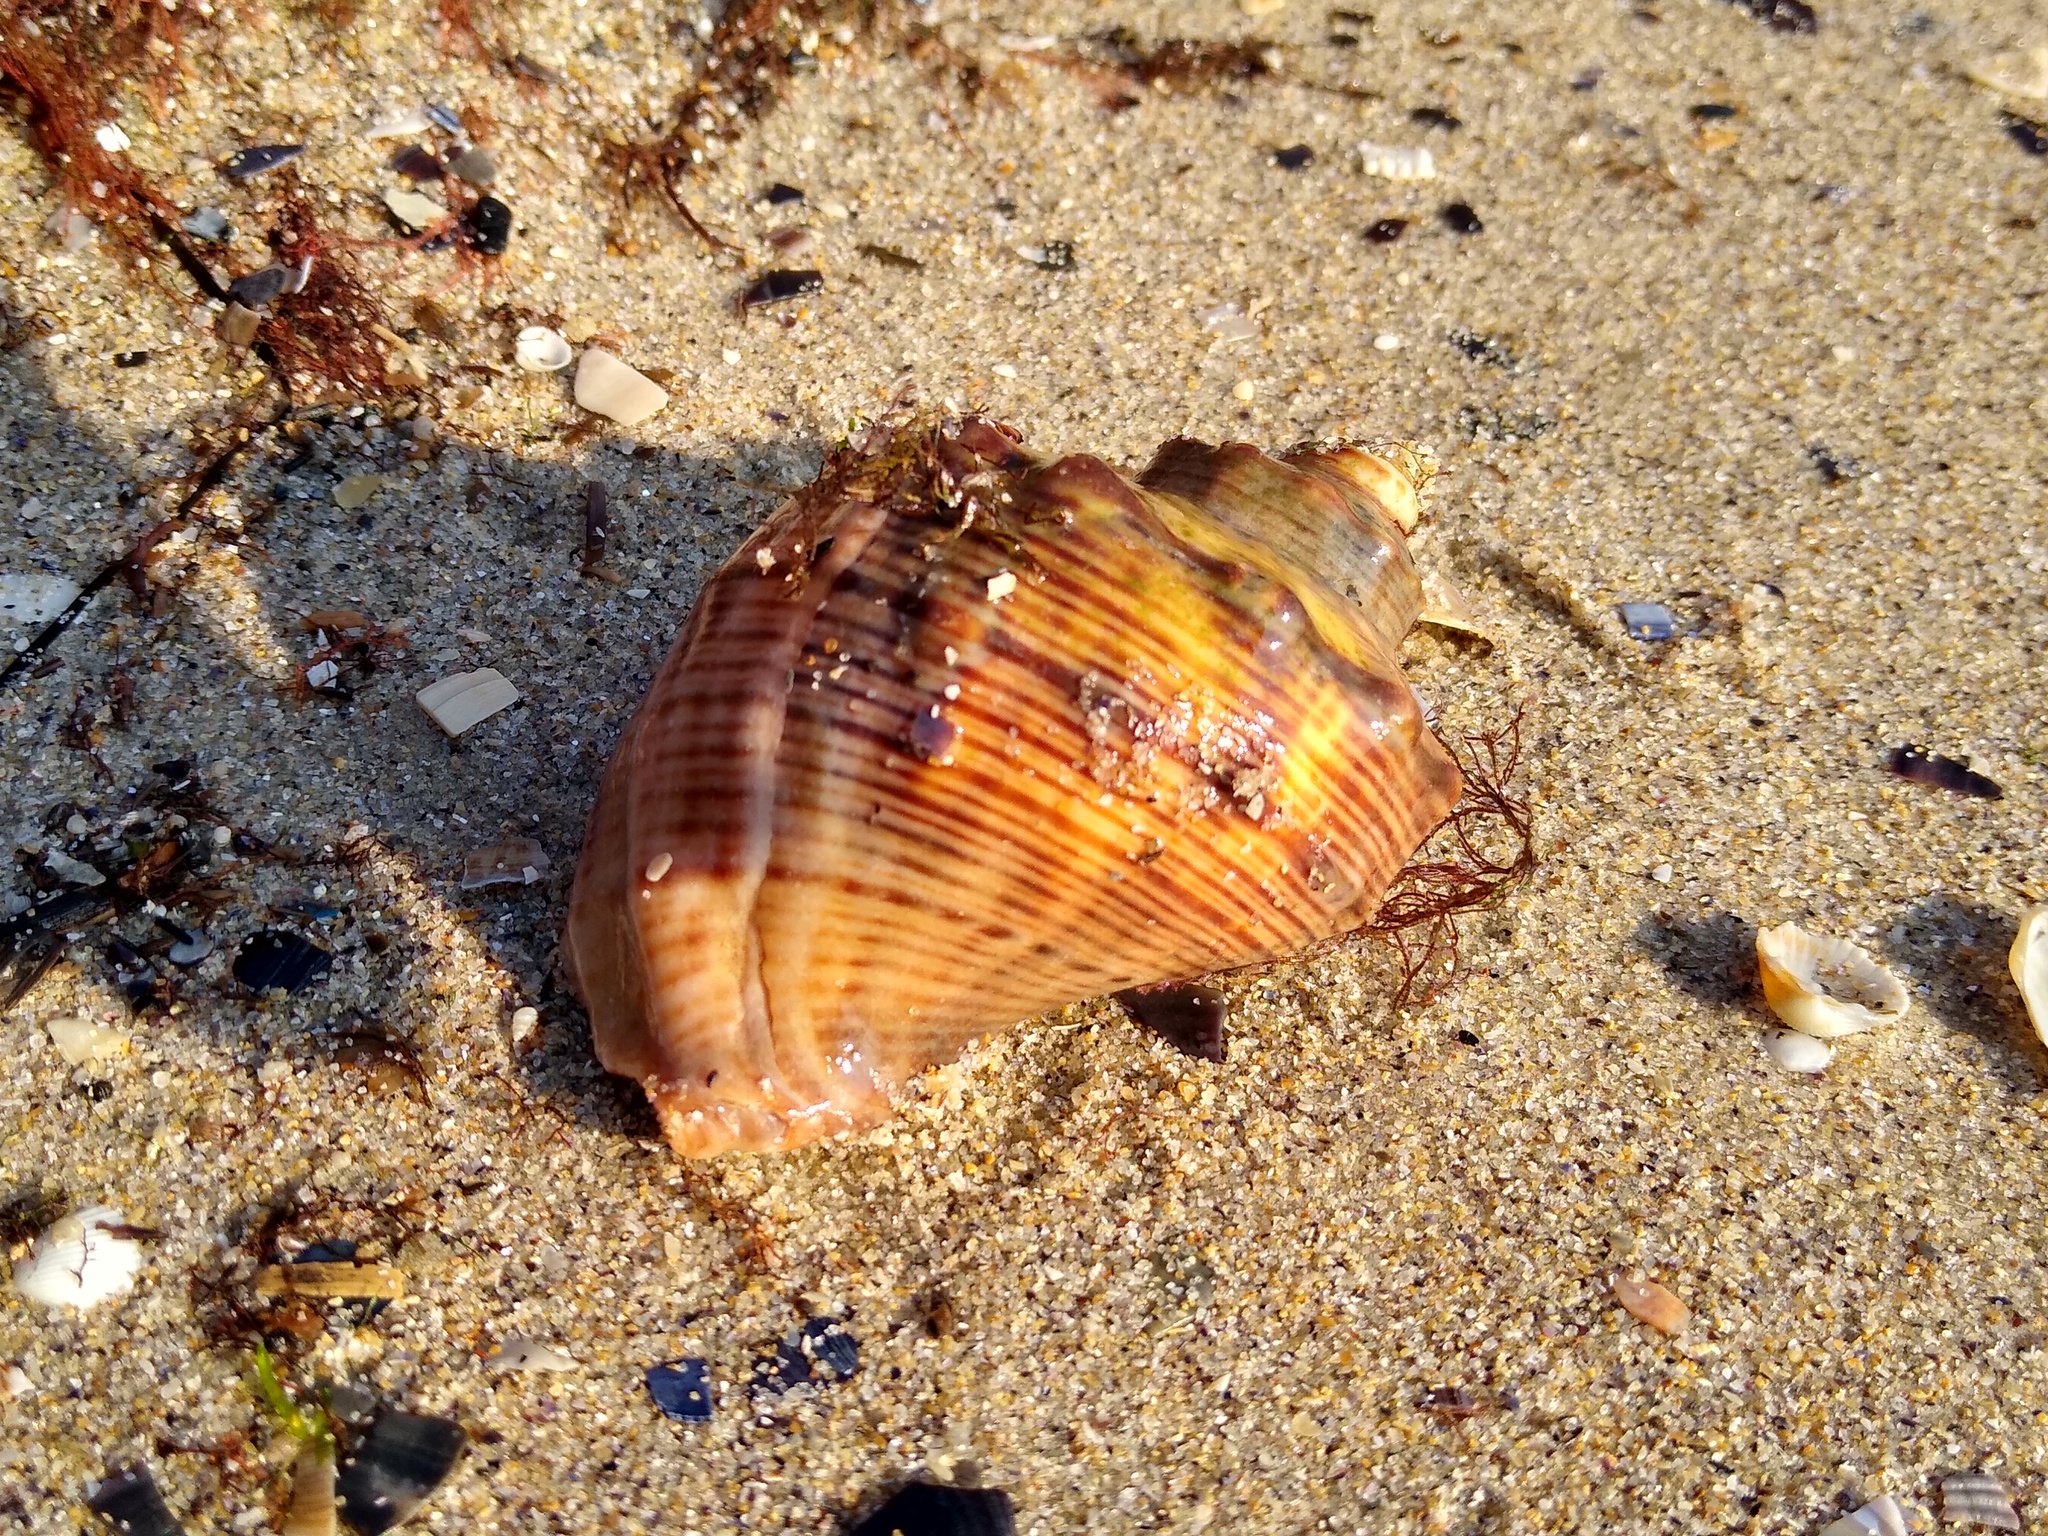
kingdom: Animalia
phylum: Mollusca
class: Gastropoda
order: Neogastropoda
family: Muricidae
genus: Rapana
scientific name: Rapana venosa
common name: Veined rapa whelk
